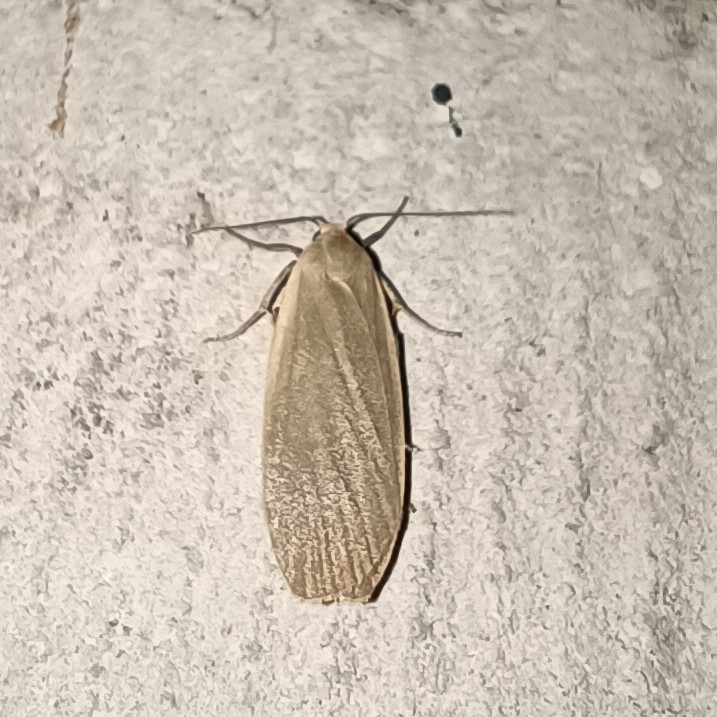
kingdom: Animalia
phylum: Arthropoda
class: Insecta
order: Lepidoptera
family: Erebidae
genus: Collita
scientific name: Collita griseola
